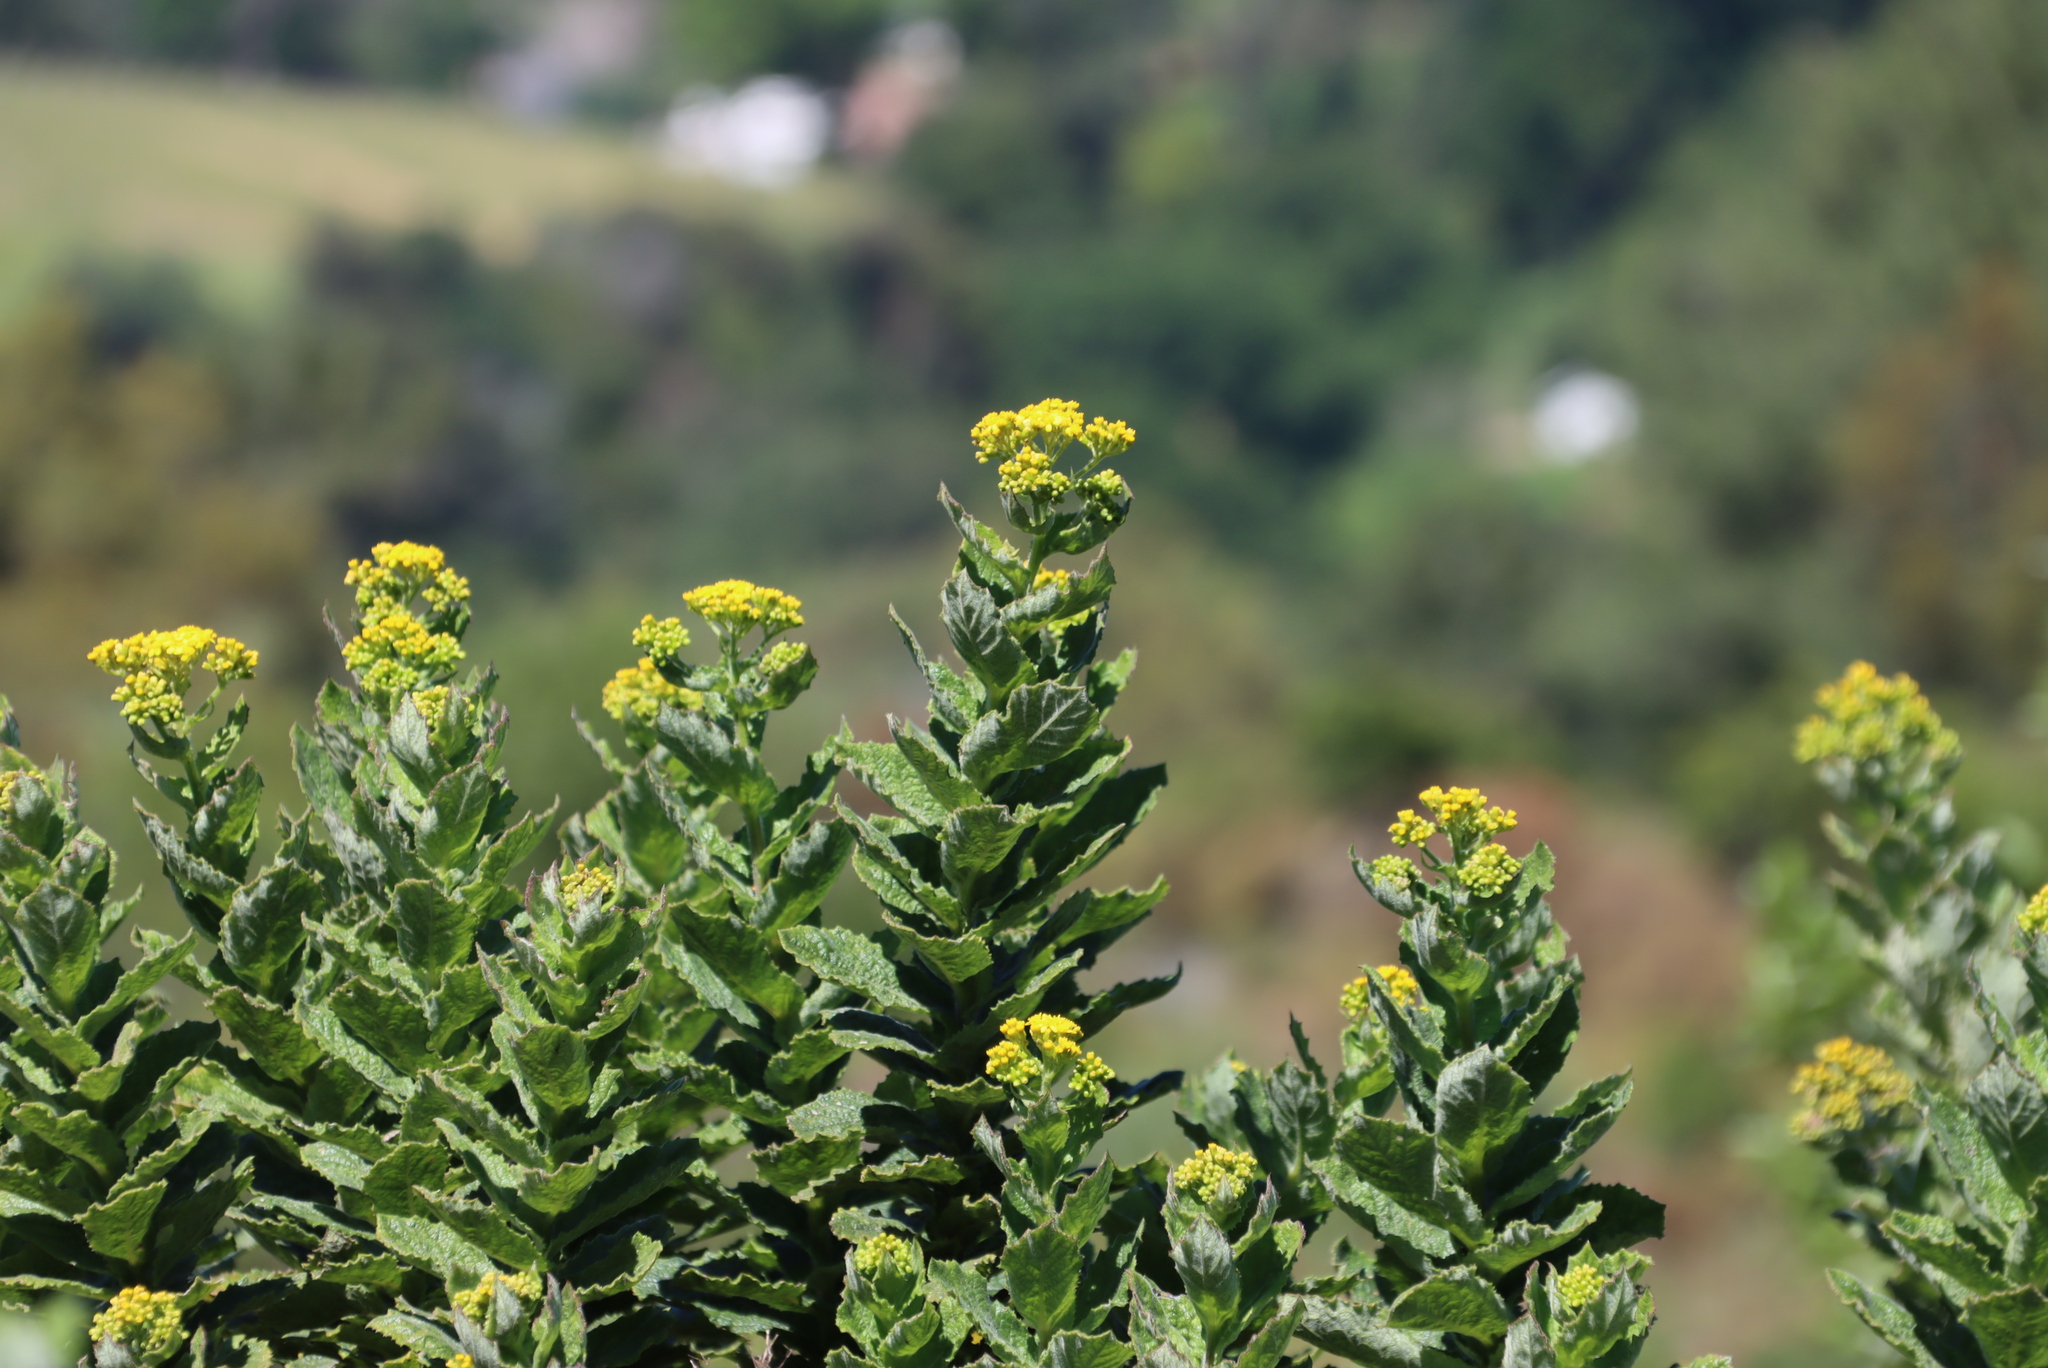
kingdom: Plantae
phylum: Tracheophyta
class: Magnoliopsida
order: Asterales
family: Asteraceae
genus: Senecio
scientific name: Senecio rigidus
